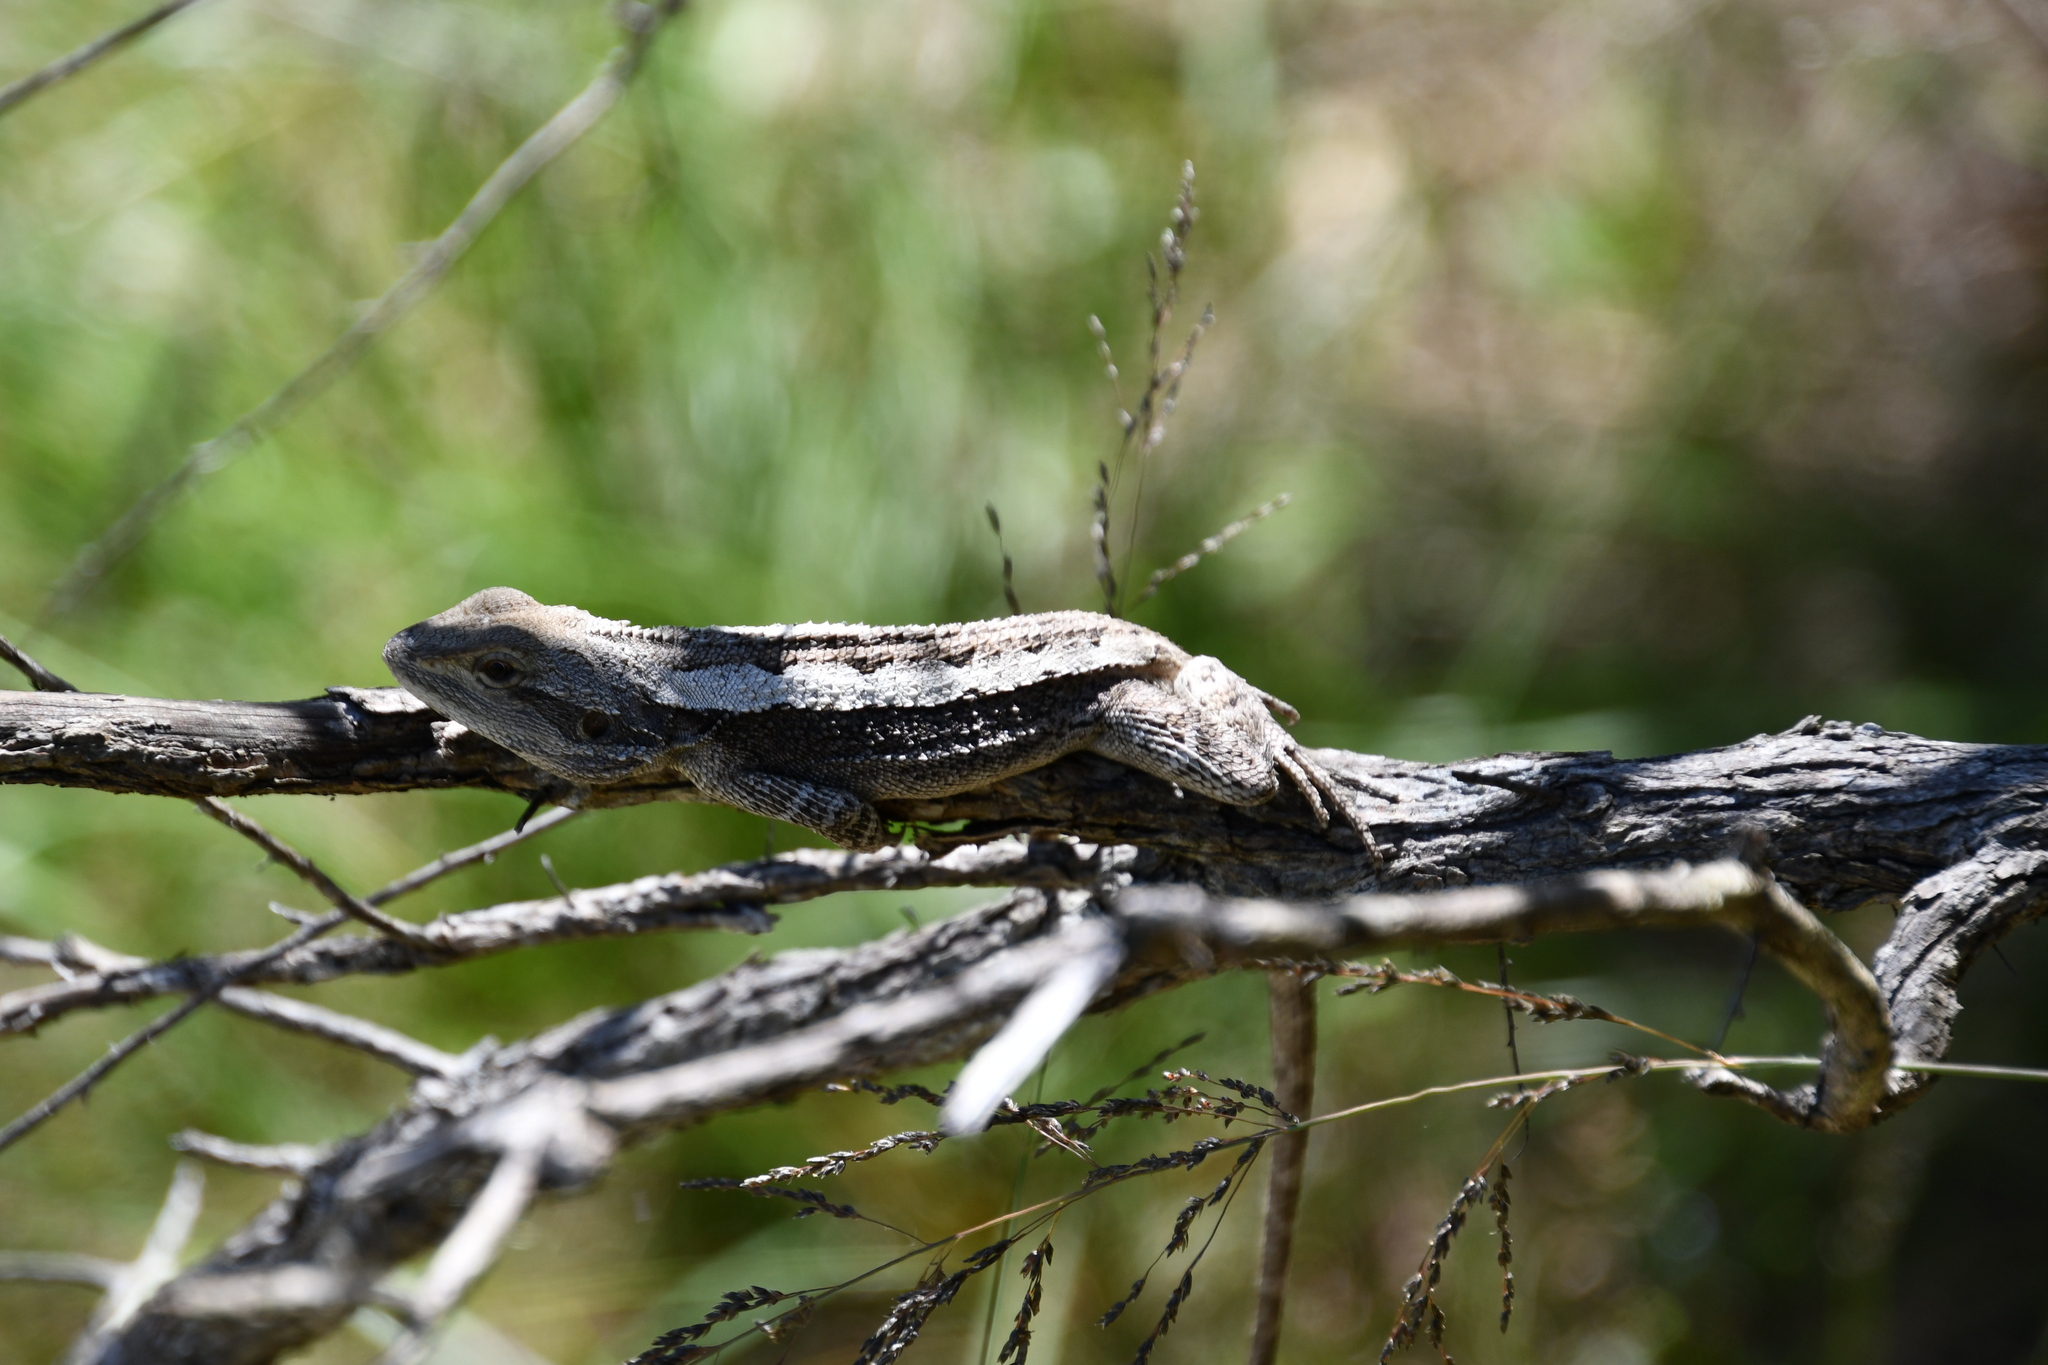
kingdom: Animalia
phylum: Chordata
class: Squamata
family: Agamidae
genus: Amphibolurus
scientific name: Amphibolurus muricatus
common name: Jacky lizard
